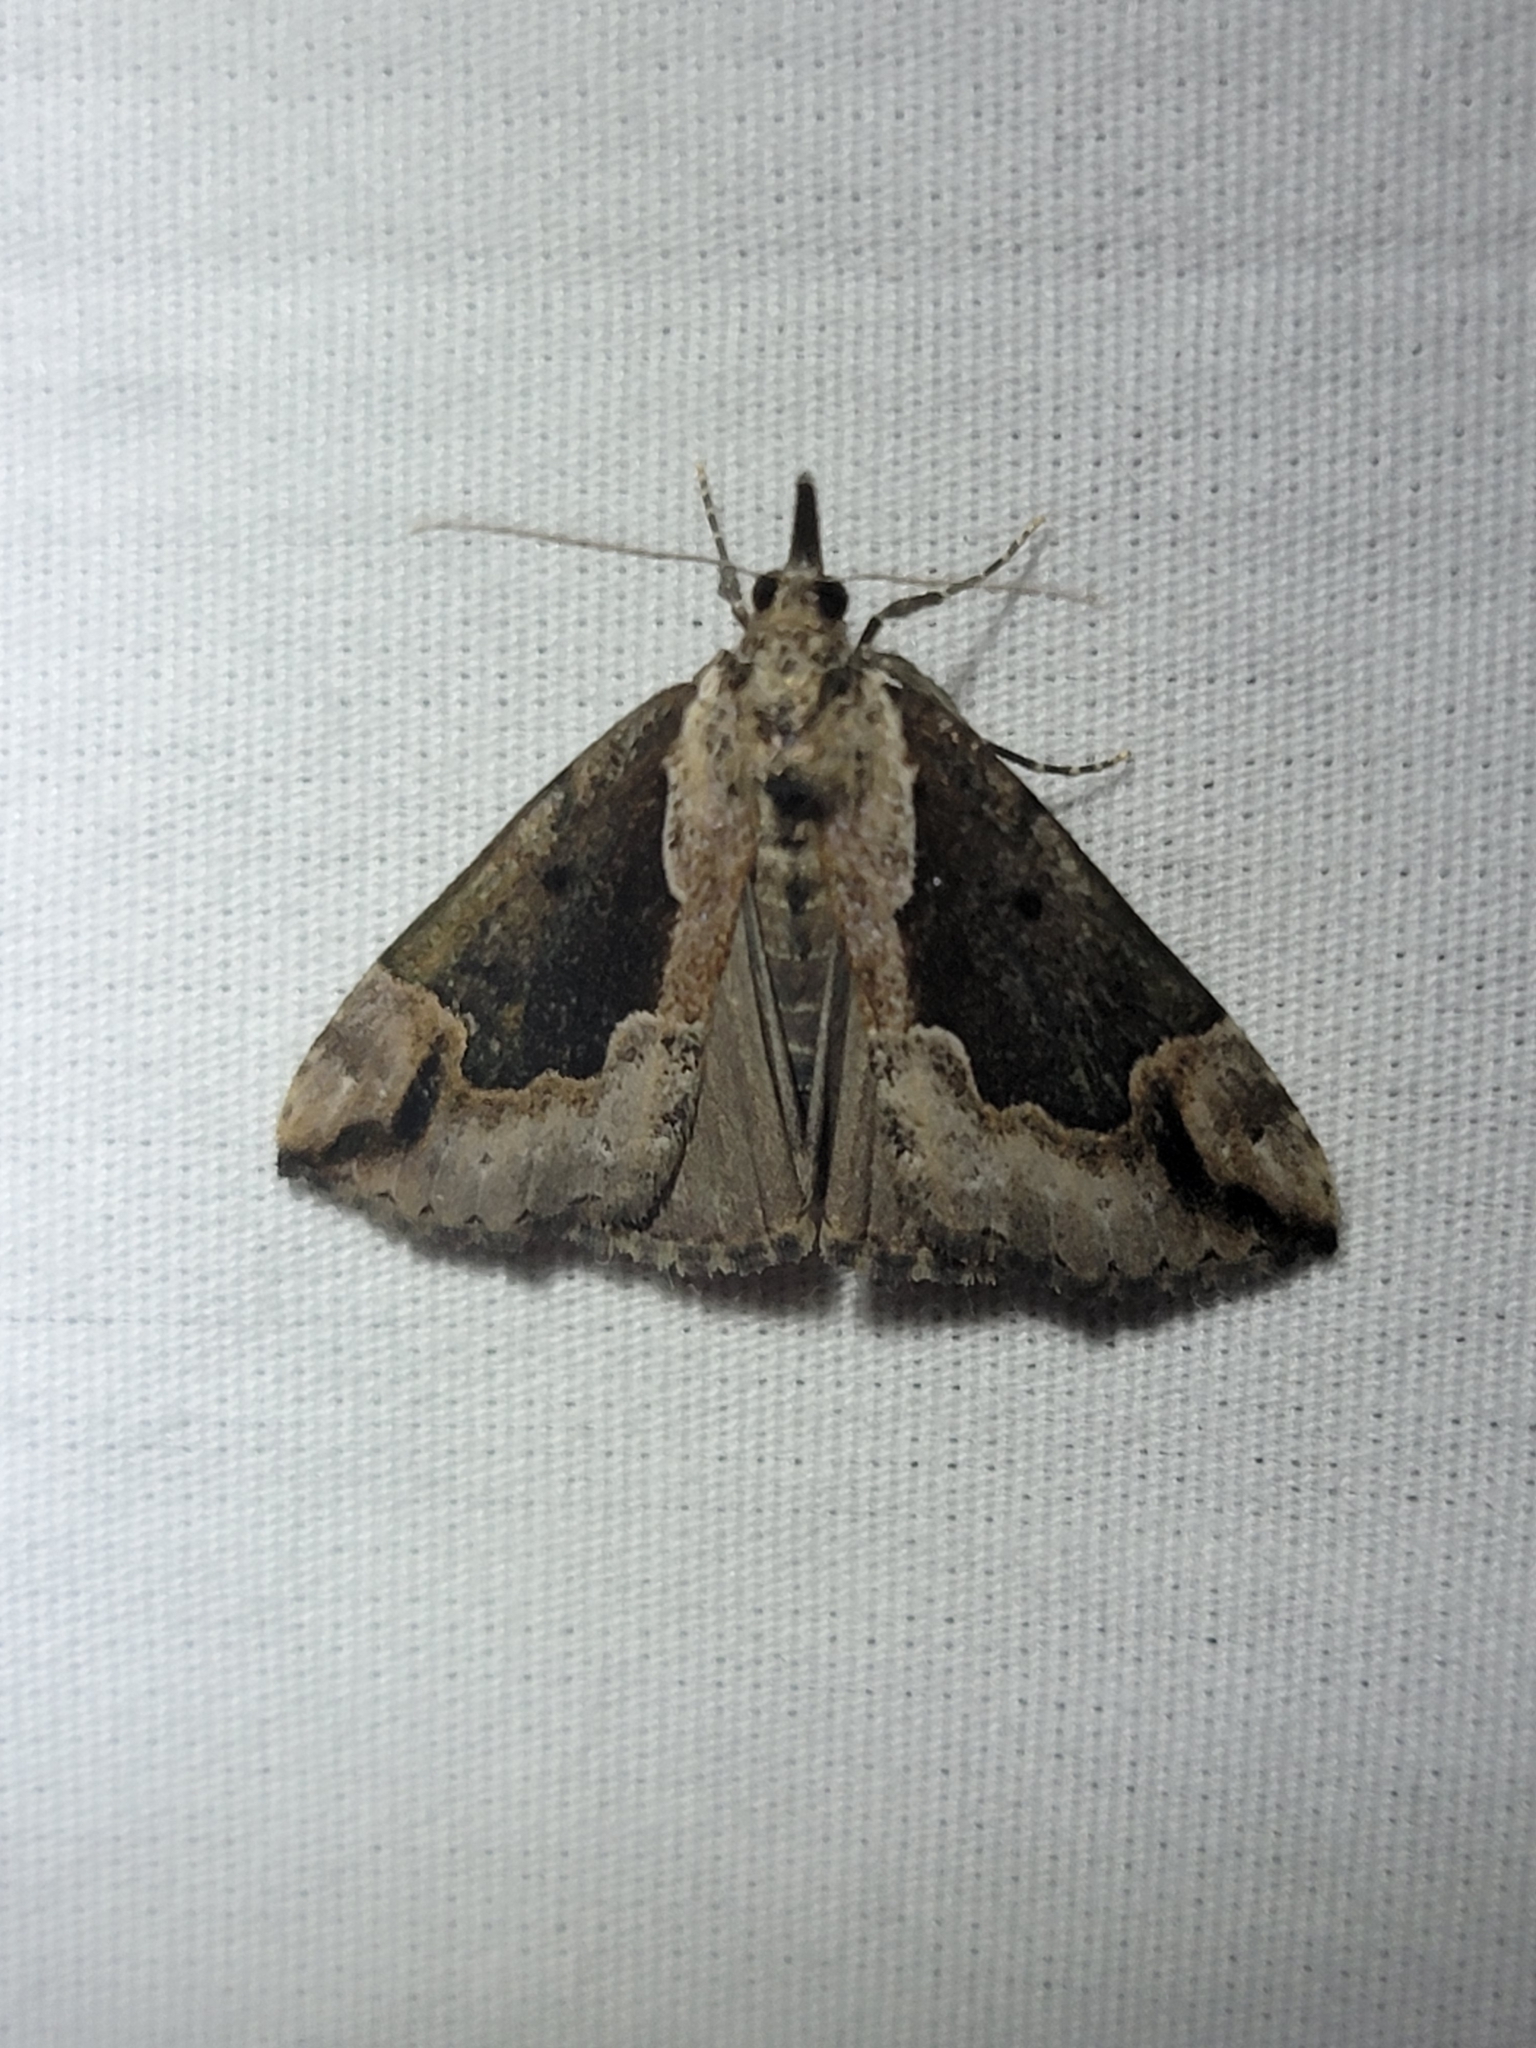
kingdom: Animalia
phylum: Arthropoda
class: Insecta
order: Lepidoptera
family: Erebidae
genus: Hypena
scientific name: Hypena baltimoralis
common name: Baltimore snout
